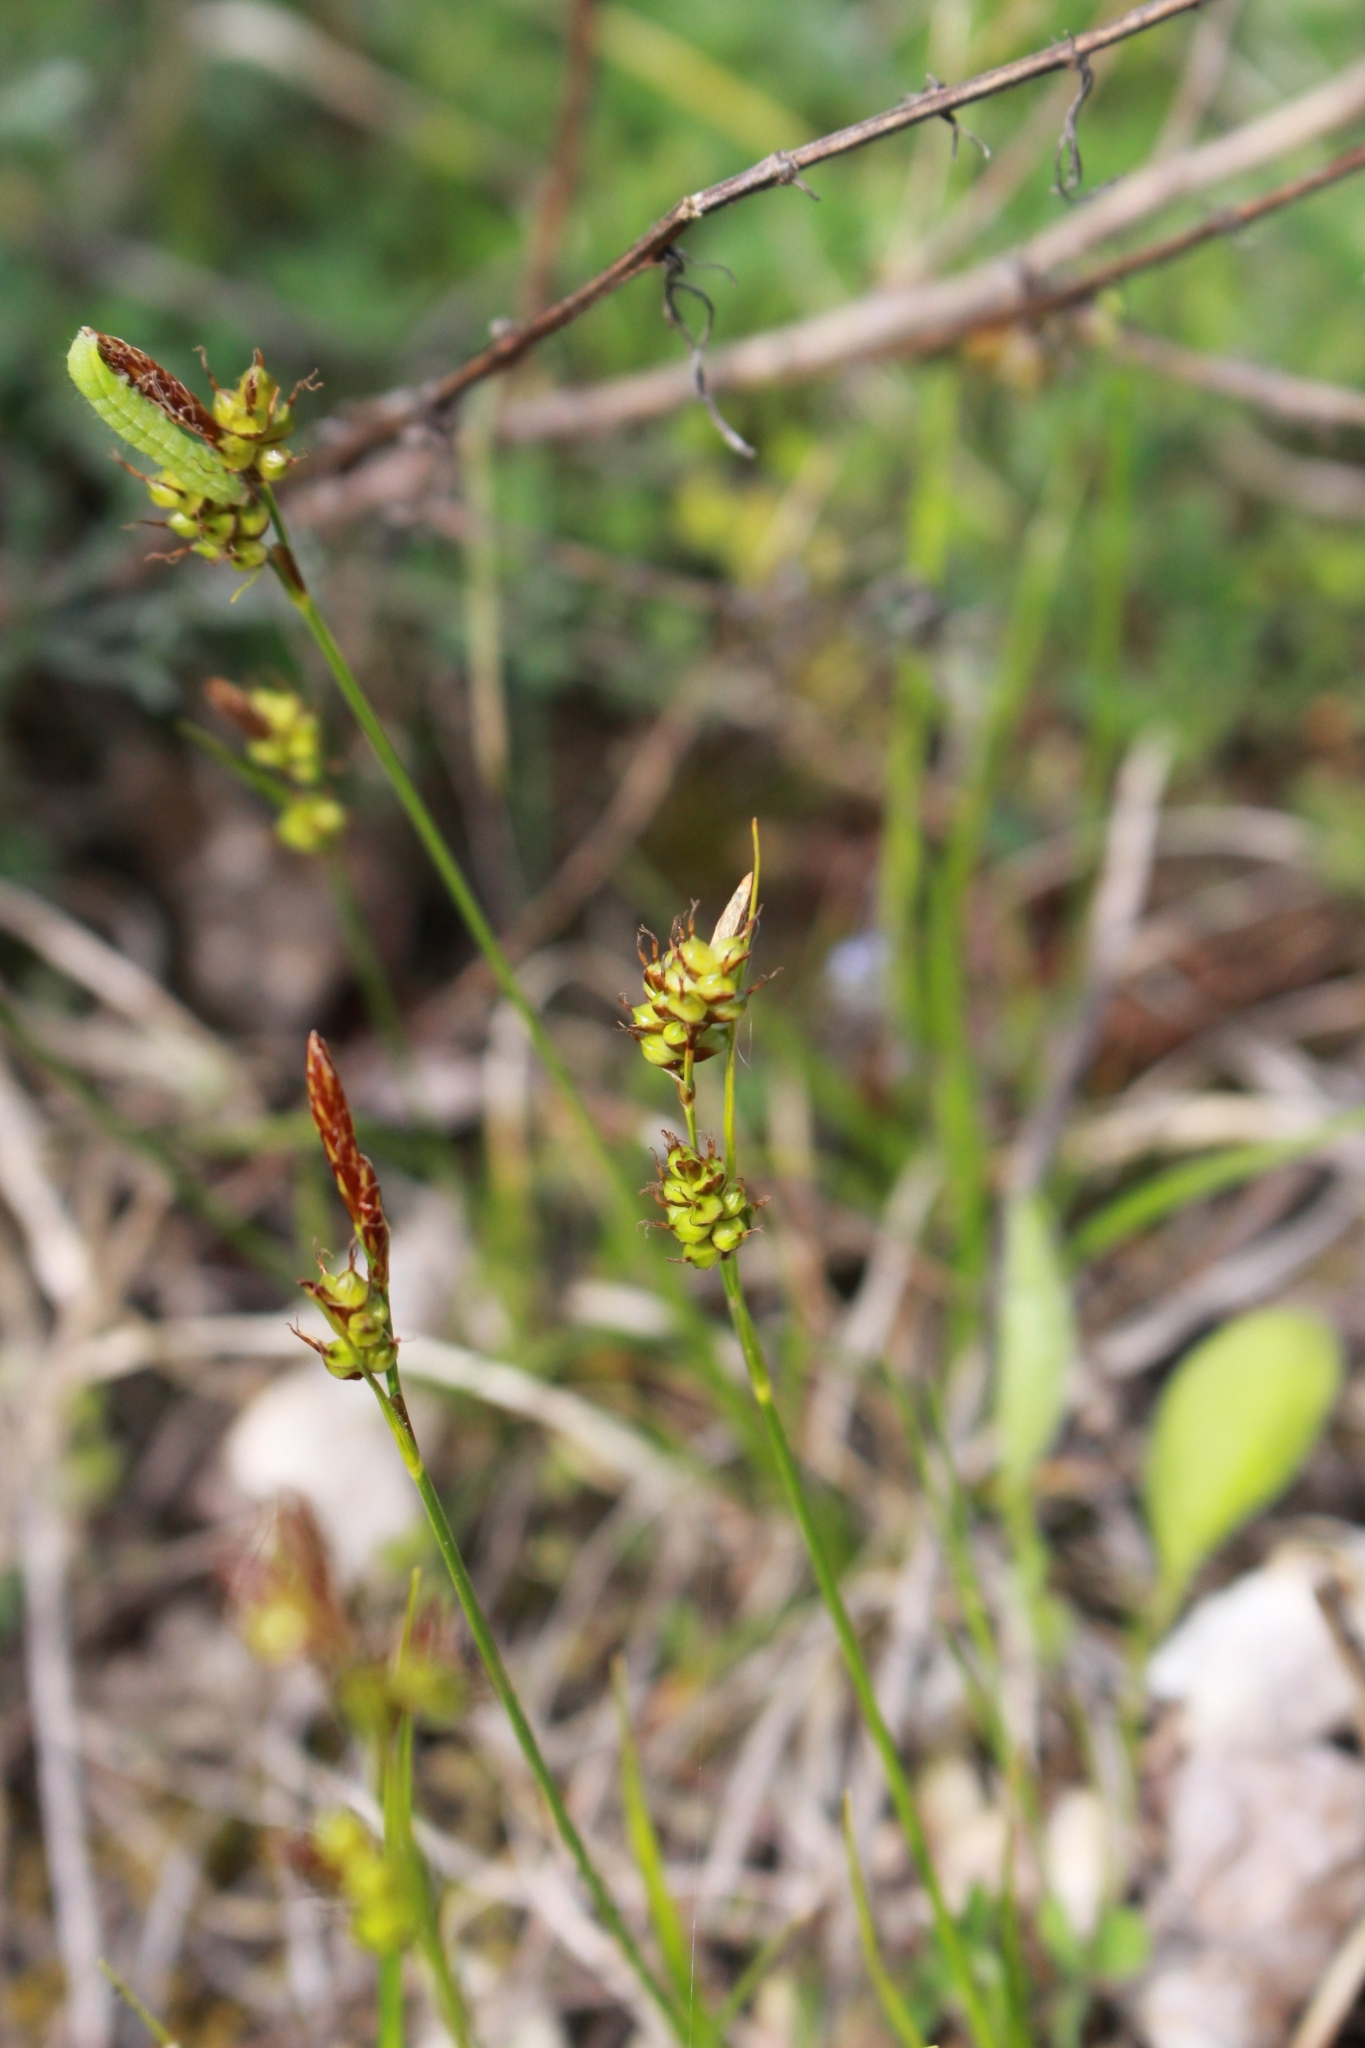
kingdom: Plantae
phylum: Tracheophyta
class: Liliopsida
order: Poales
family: Cyperaceae
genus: Carex
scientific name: Carex liparocarpos
